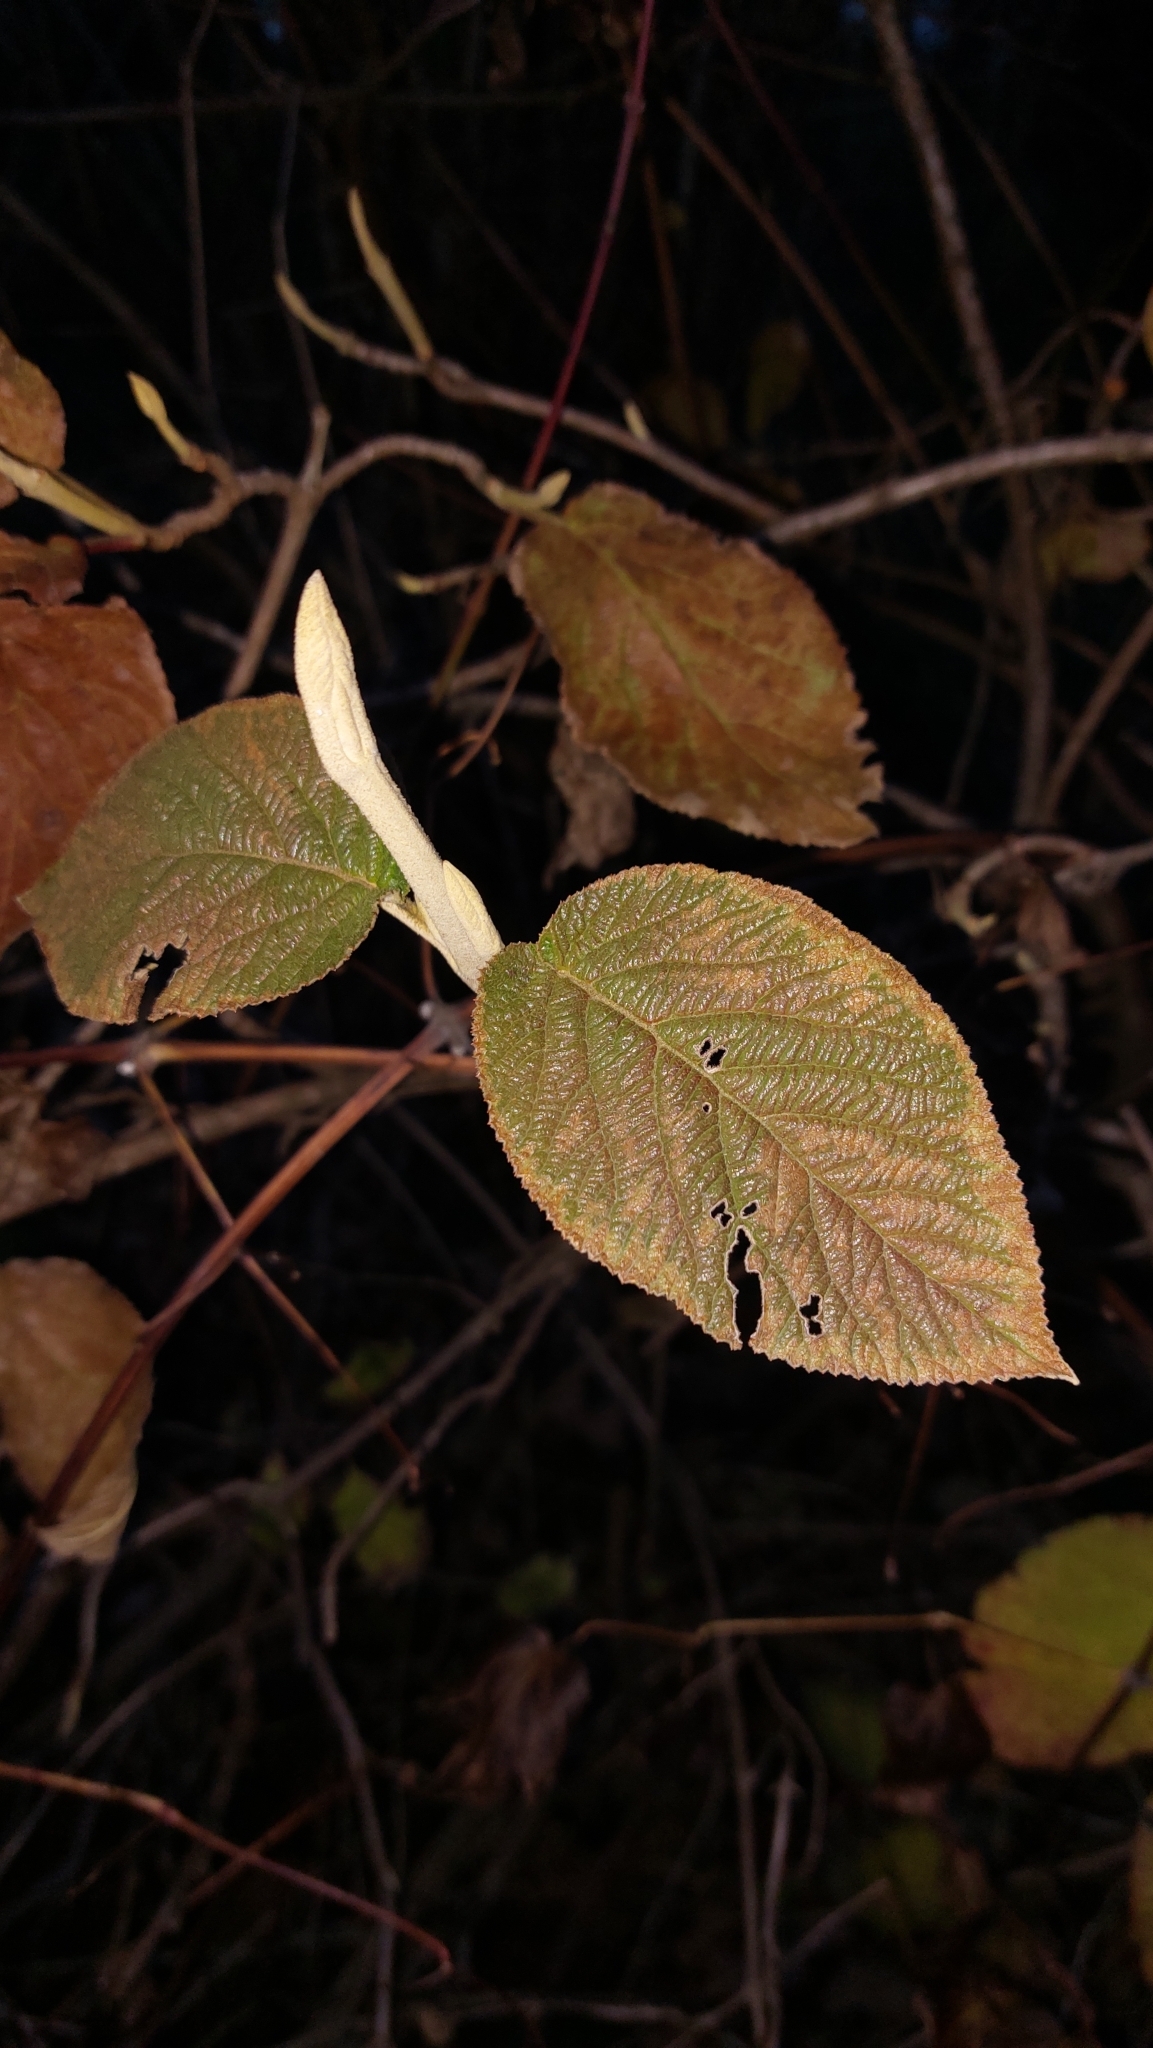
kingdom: Plantae
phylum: Tracheophyta
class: Magnoliopsida
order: Dipsacales
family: Viburnaceae
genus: Viburnum
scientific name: Viburnum lantana
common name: Wayfaring tree
